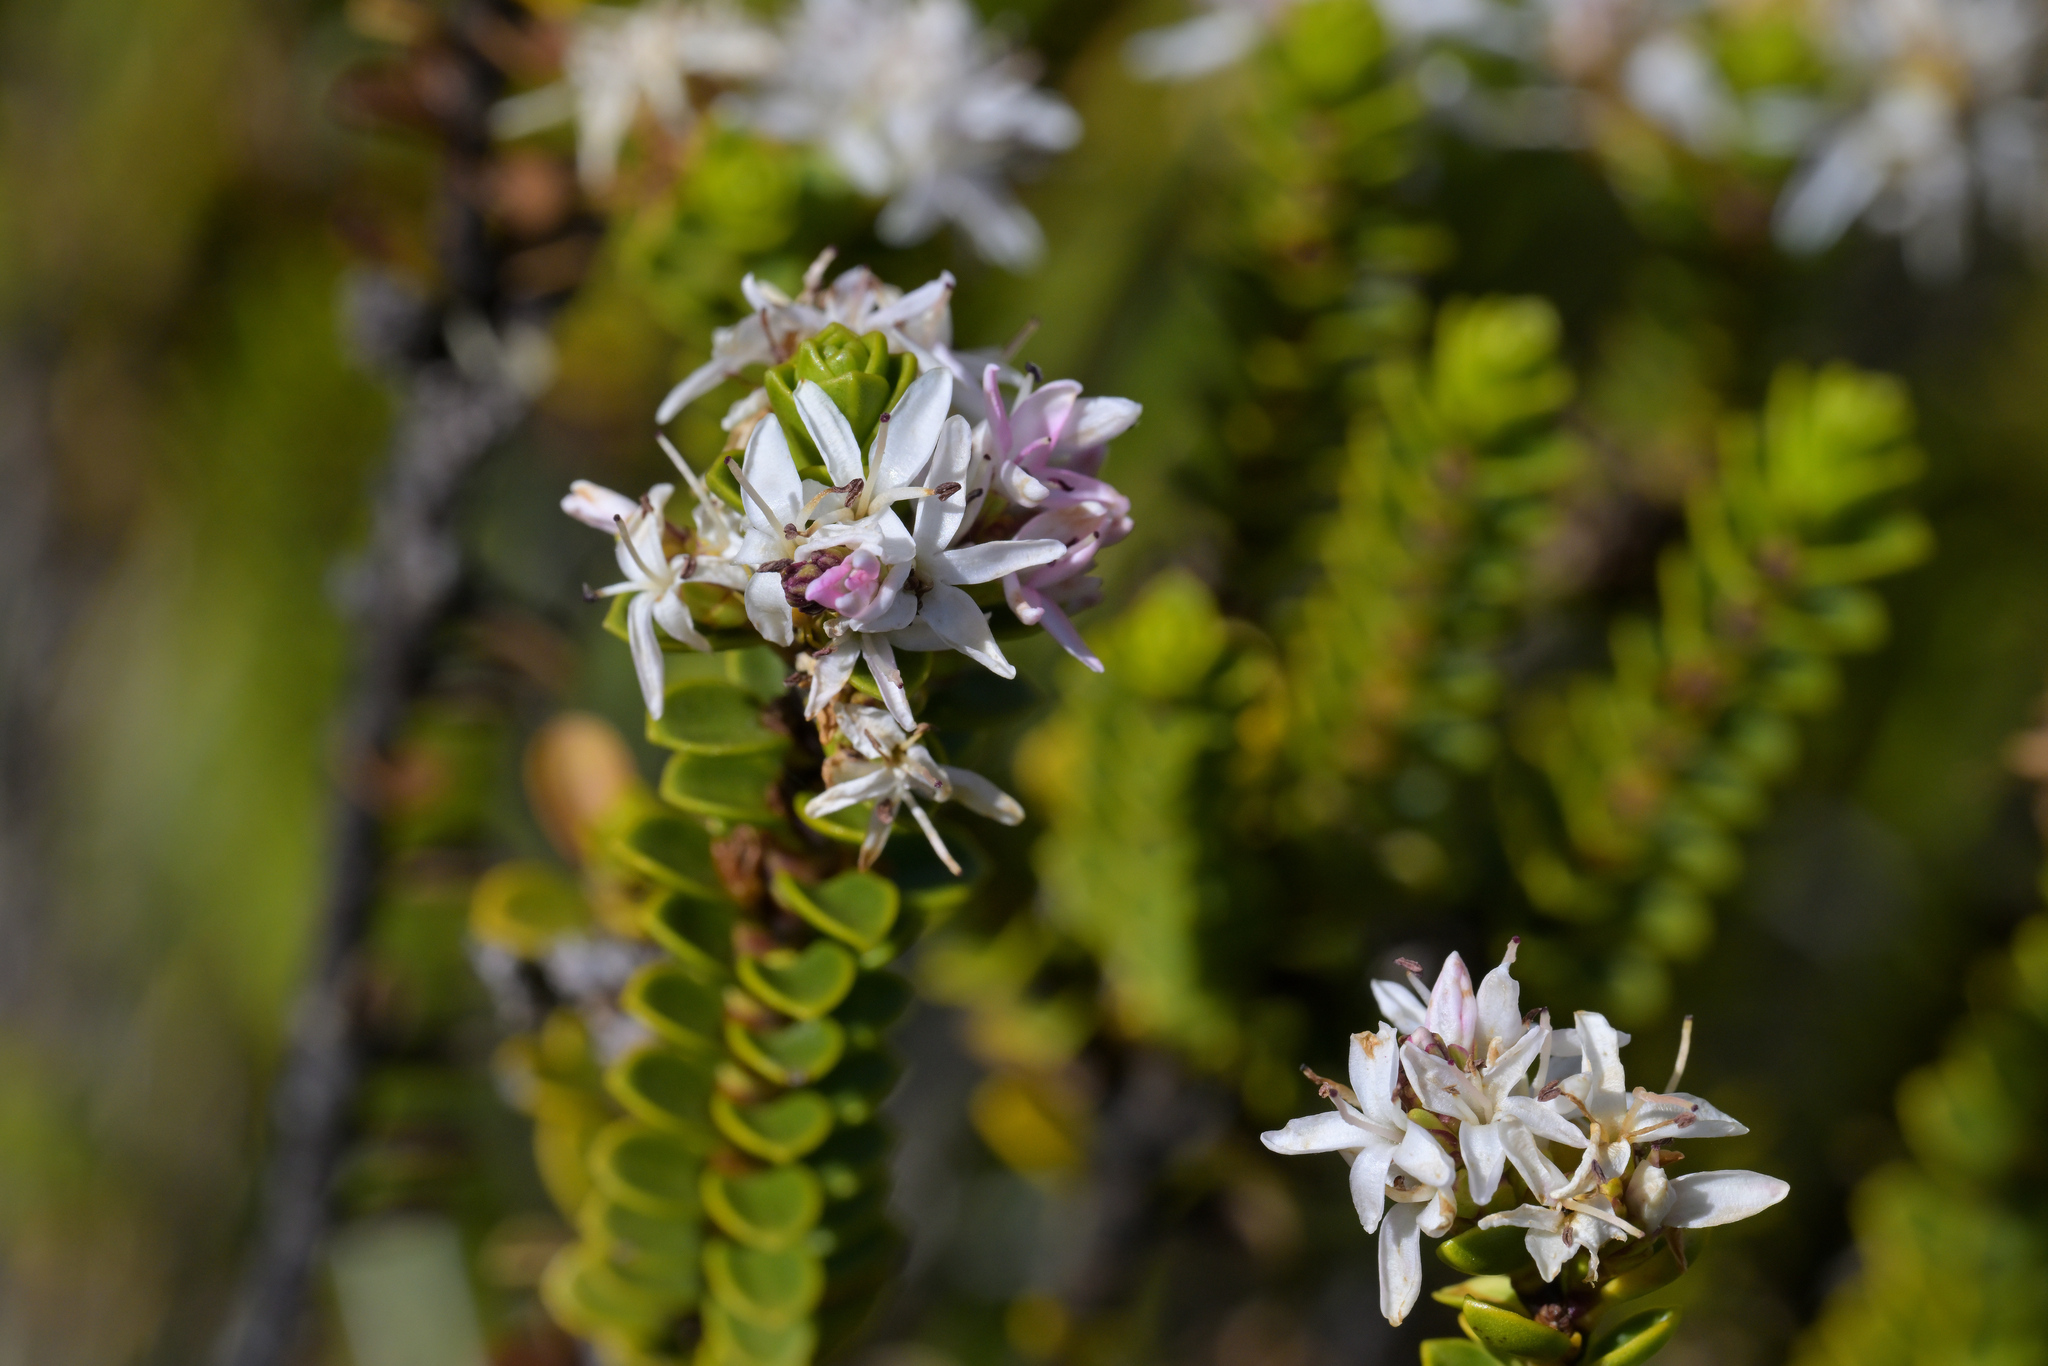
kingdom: Plantae
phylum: Tracheophyta
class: Magnoliopsida
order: Lamiales
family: Plantaginaceae
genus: Veronica
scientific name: Veronica odora
